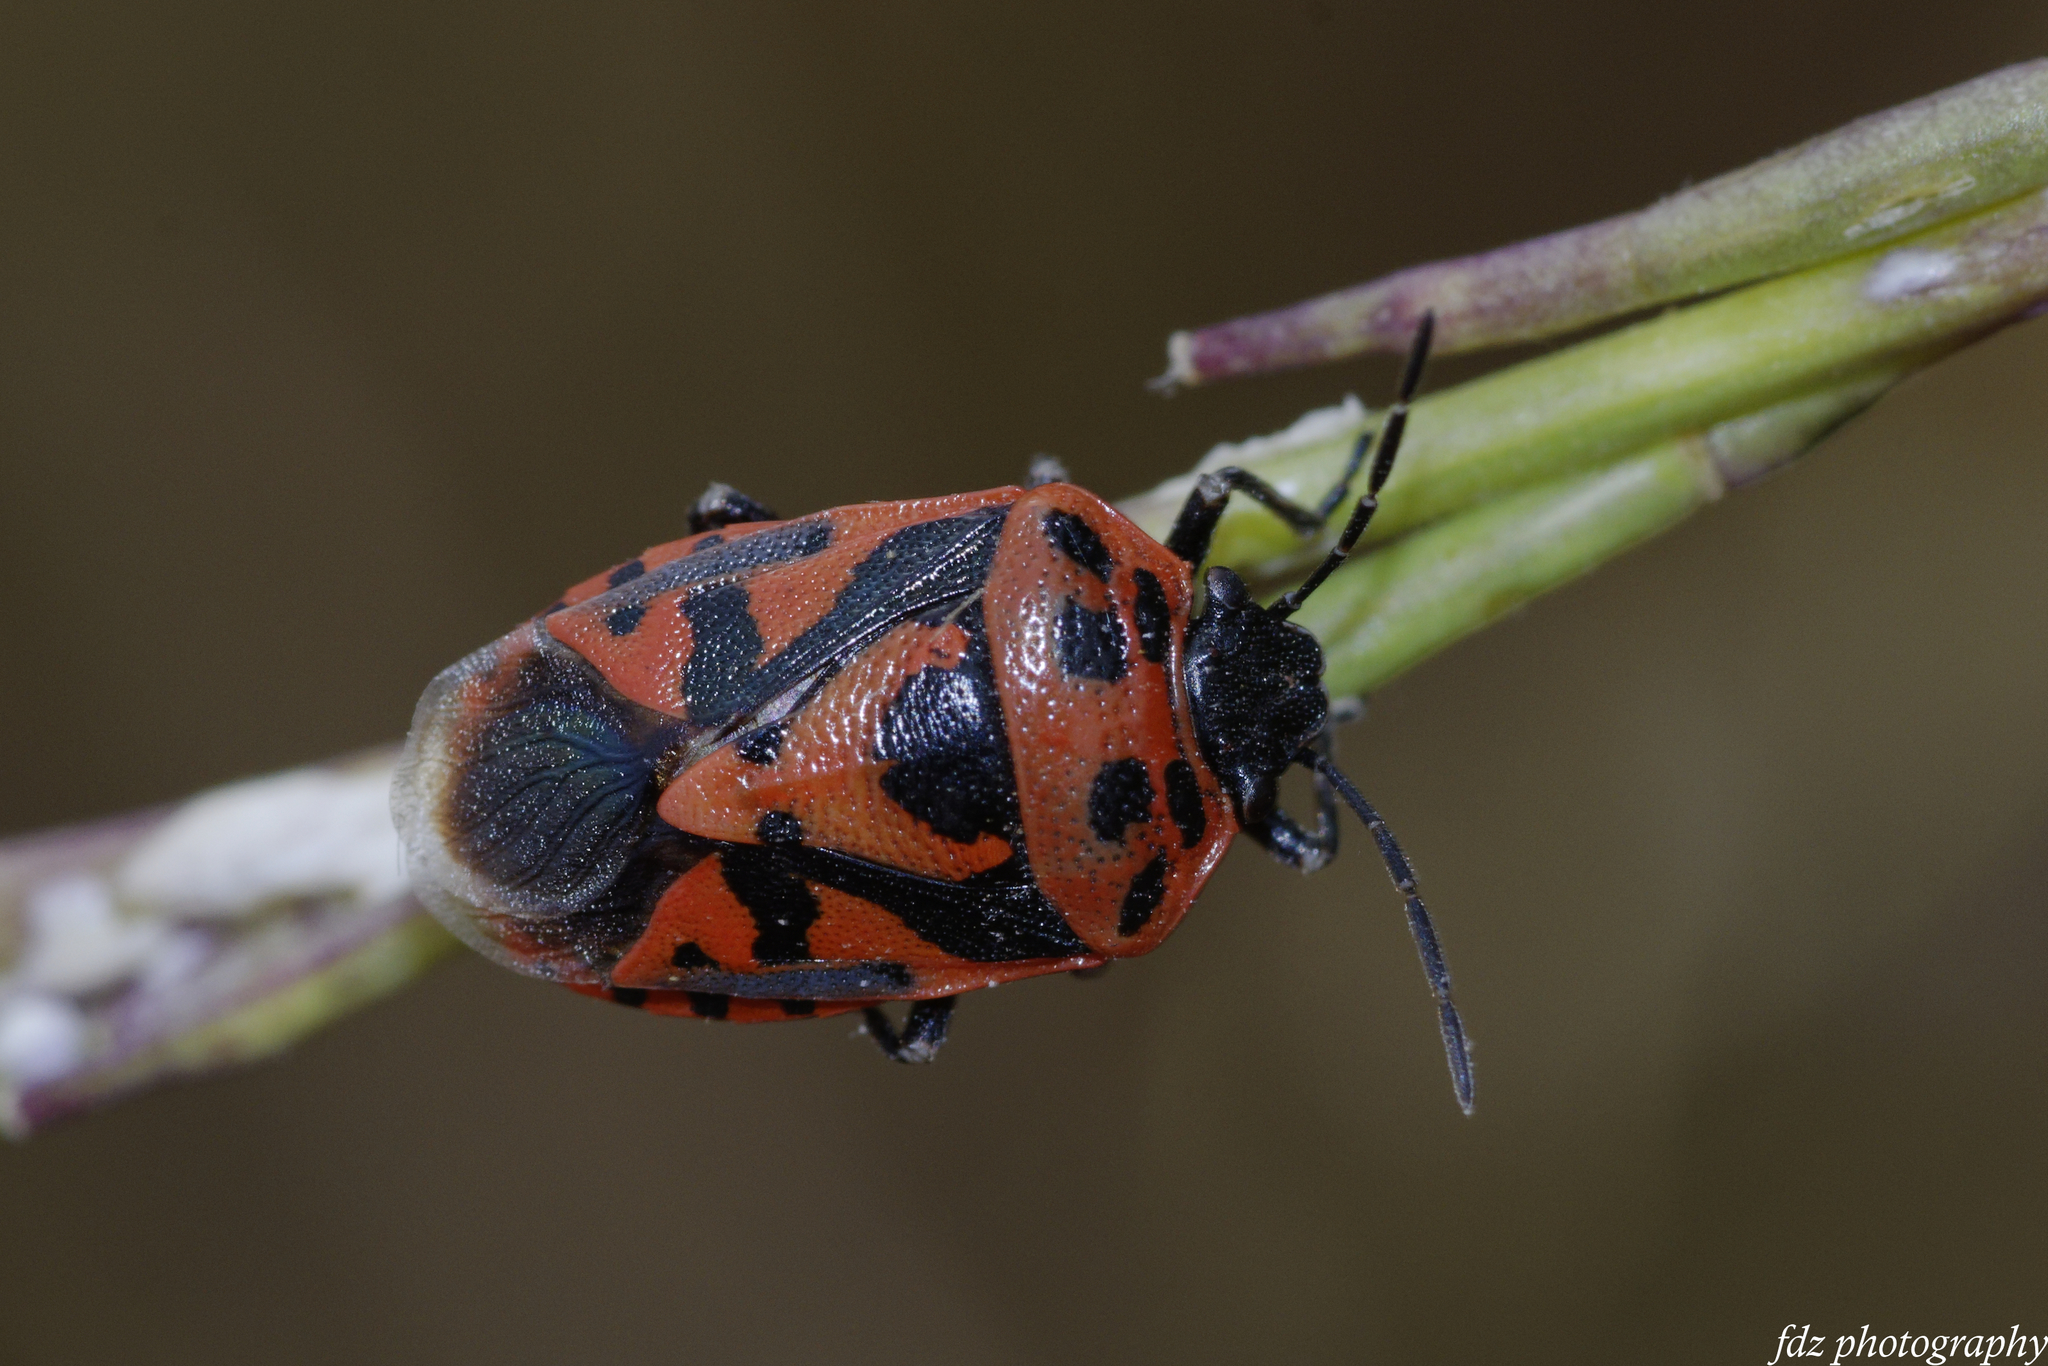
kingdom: Animalia
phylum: Arthropoda
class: Insecta
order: Hemiptera
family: Pentatomidae
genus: Eurydema
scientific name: Eurydema ornata
